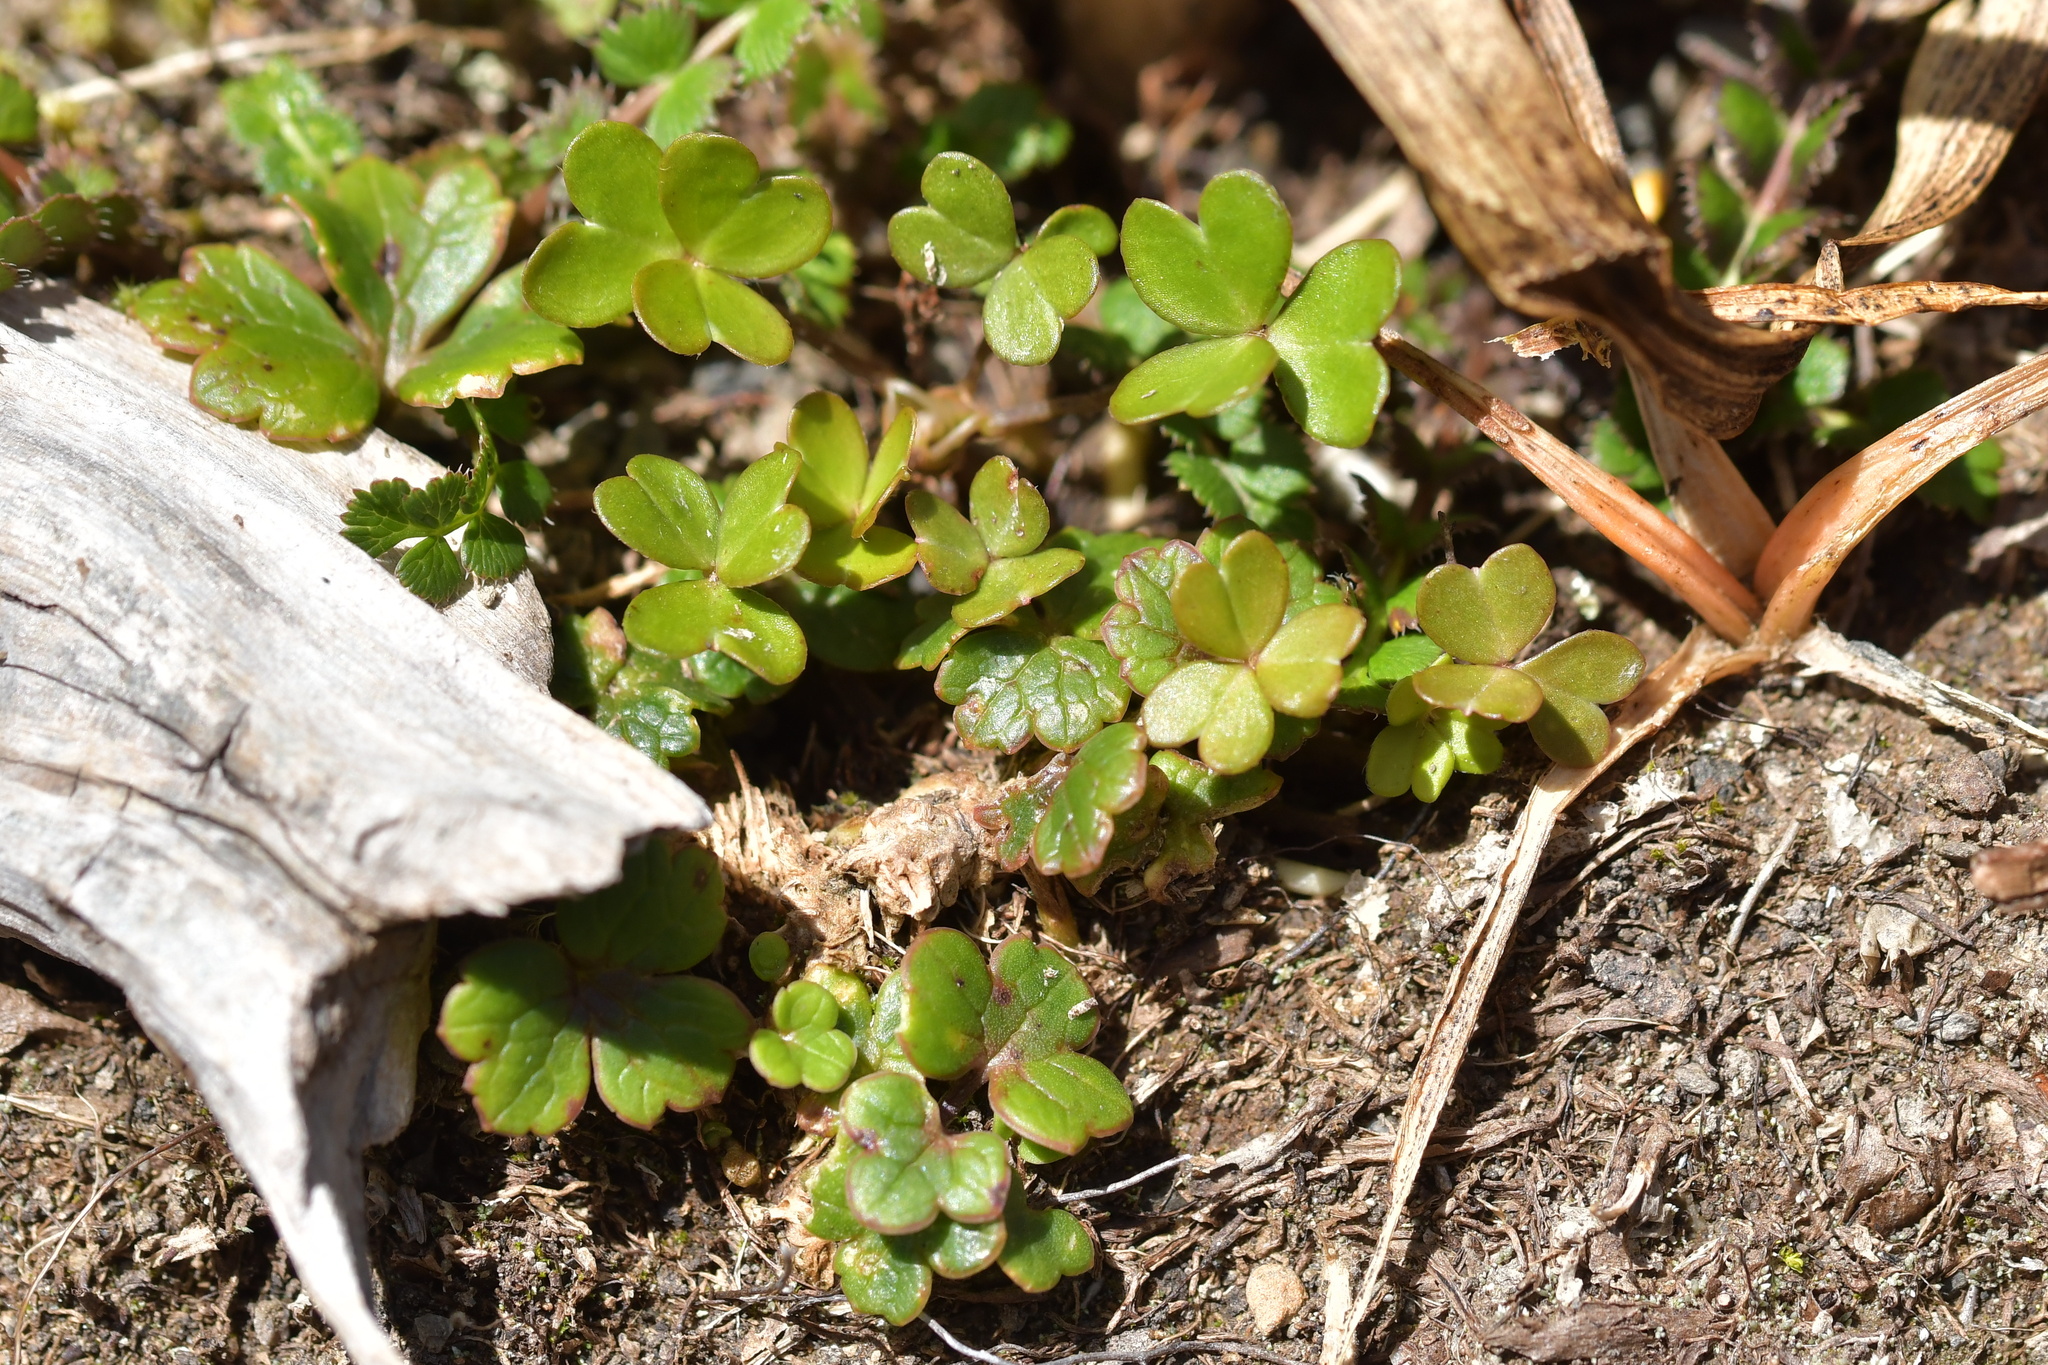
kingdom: Plantae
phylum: Tracheophyta
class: Magnoliopsida
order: Oxalidales
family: Oxalidaceae
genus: Oxalis
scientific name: Oxalis magellanica
